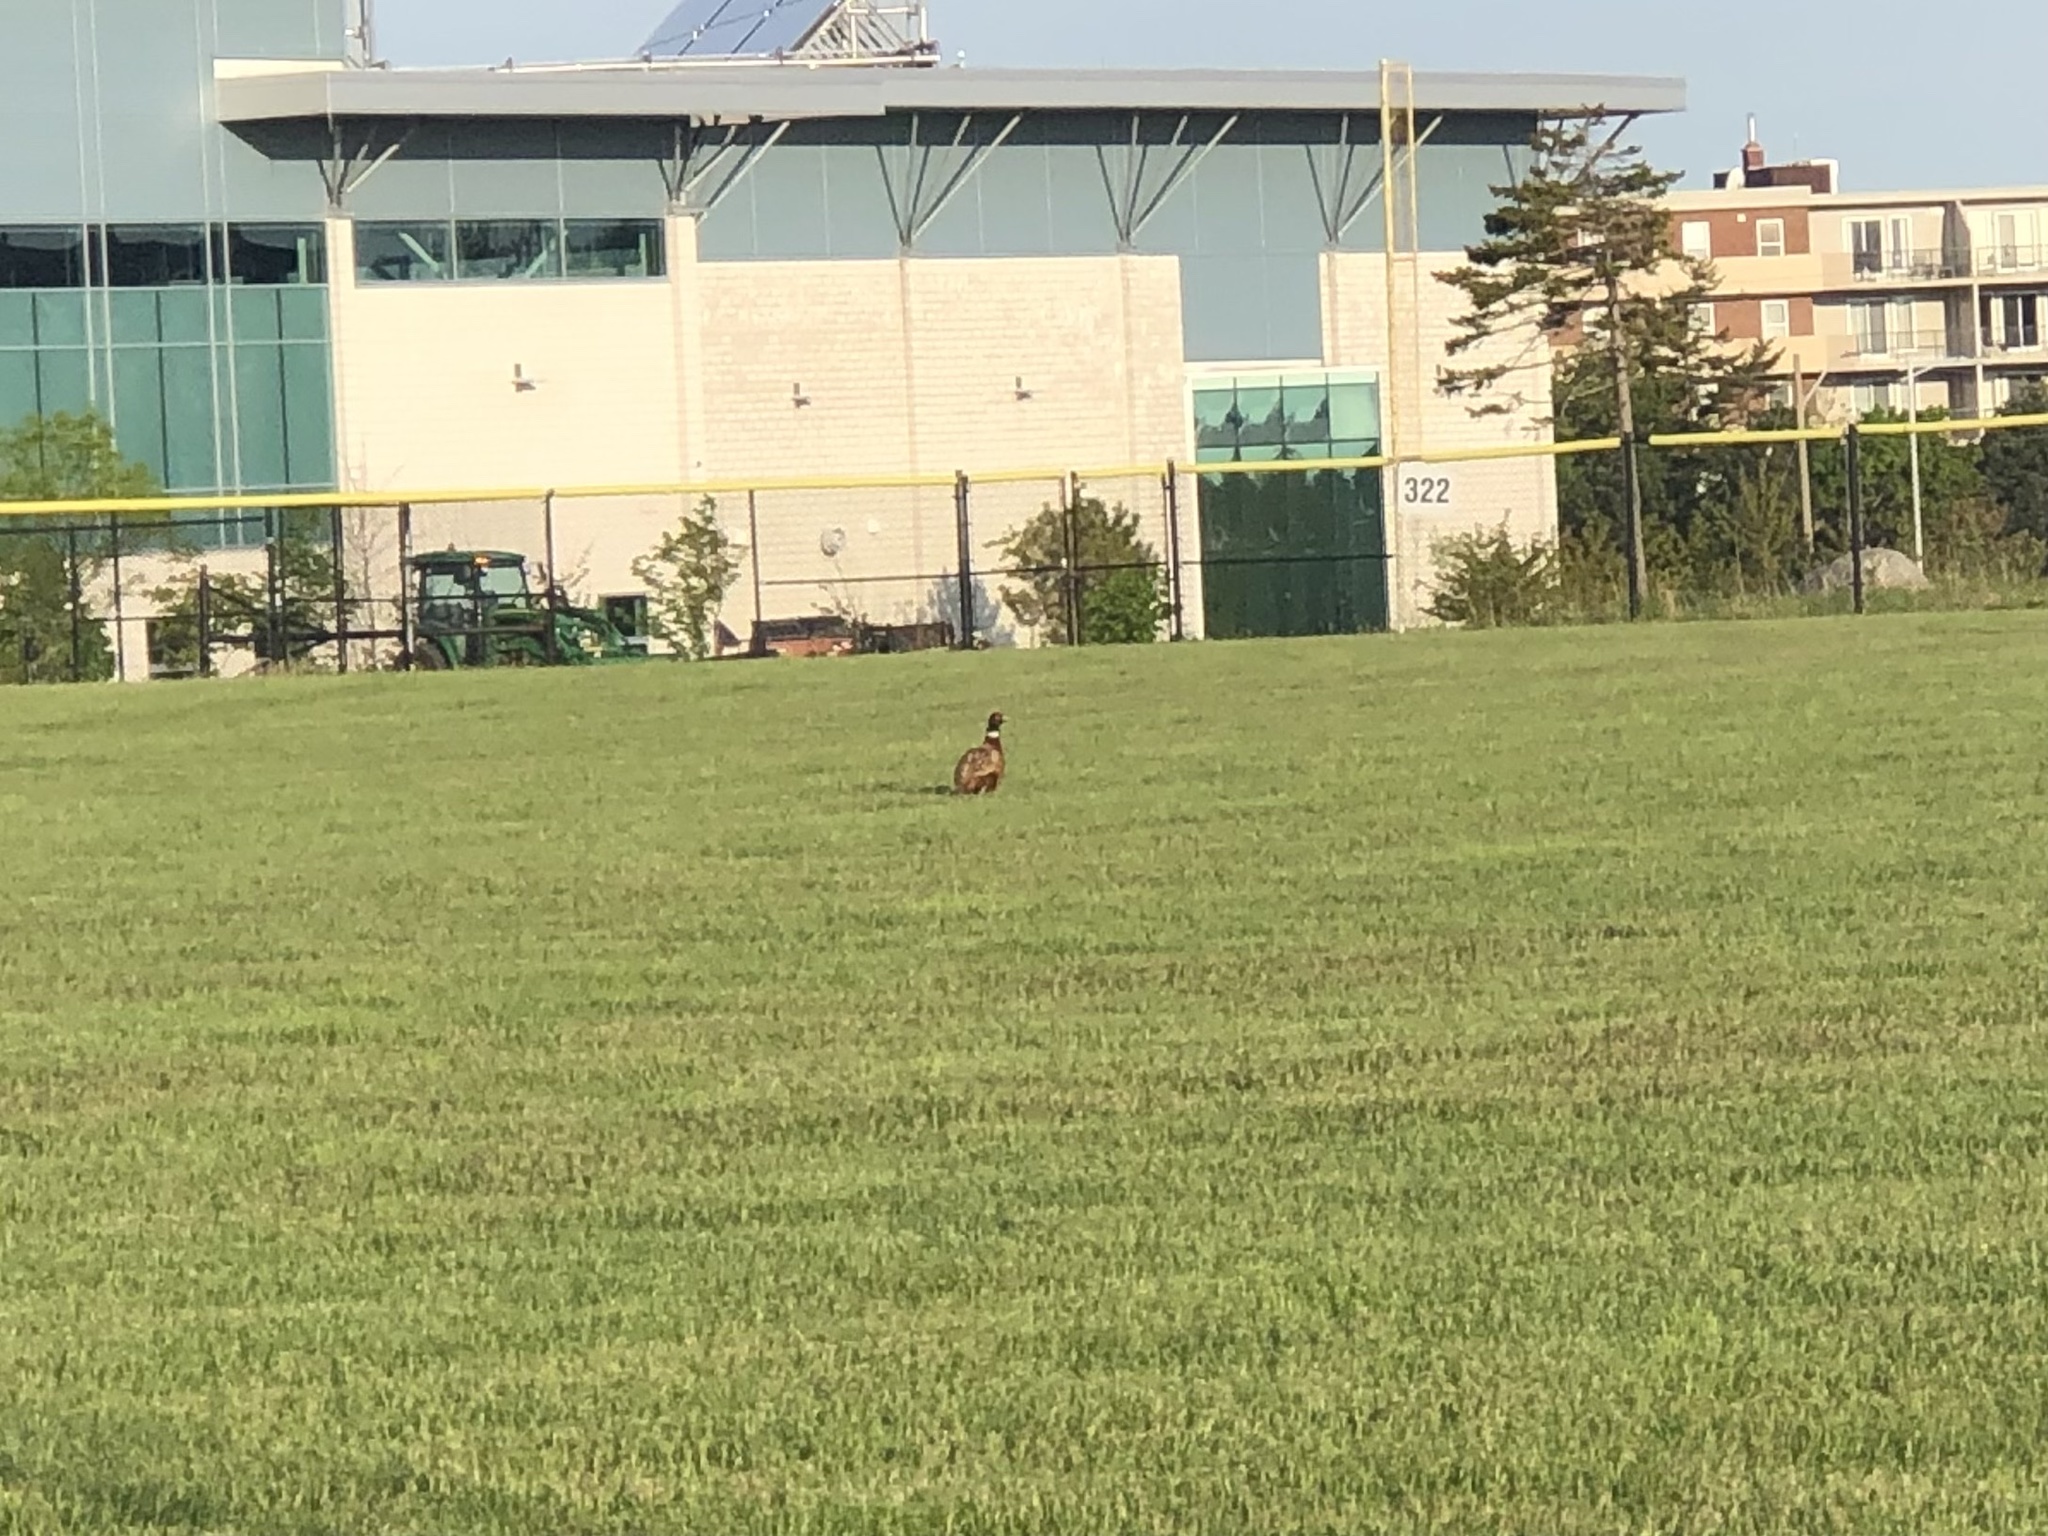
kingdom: Animalia
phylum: Chordata
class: Aves
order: Galliformes
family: Phasianidae
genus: Phasianus
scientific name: Phasianus colchicus
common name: Common pheasant
